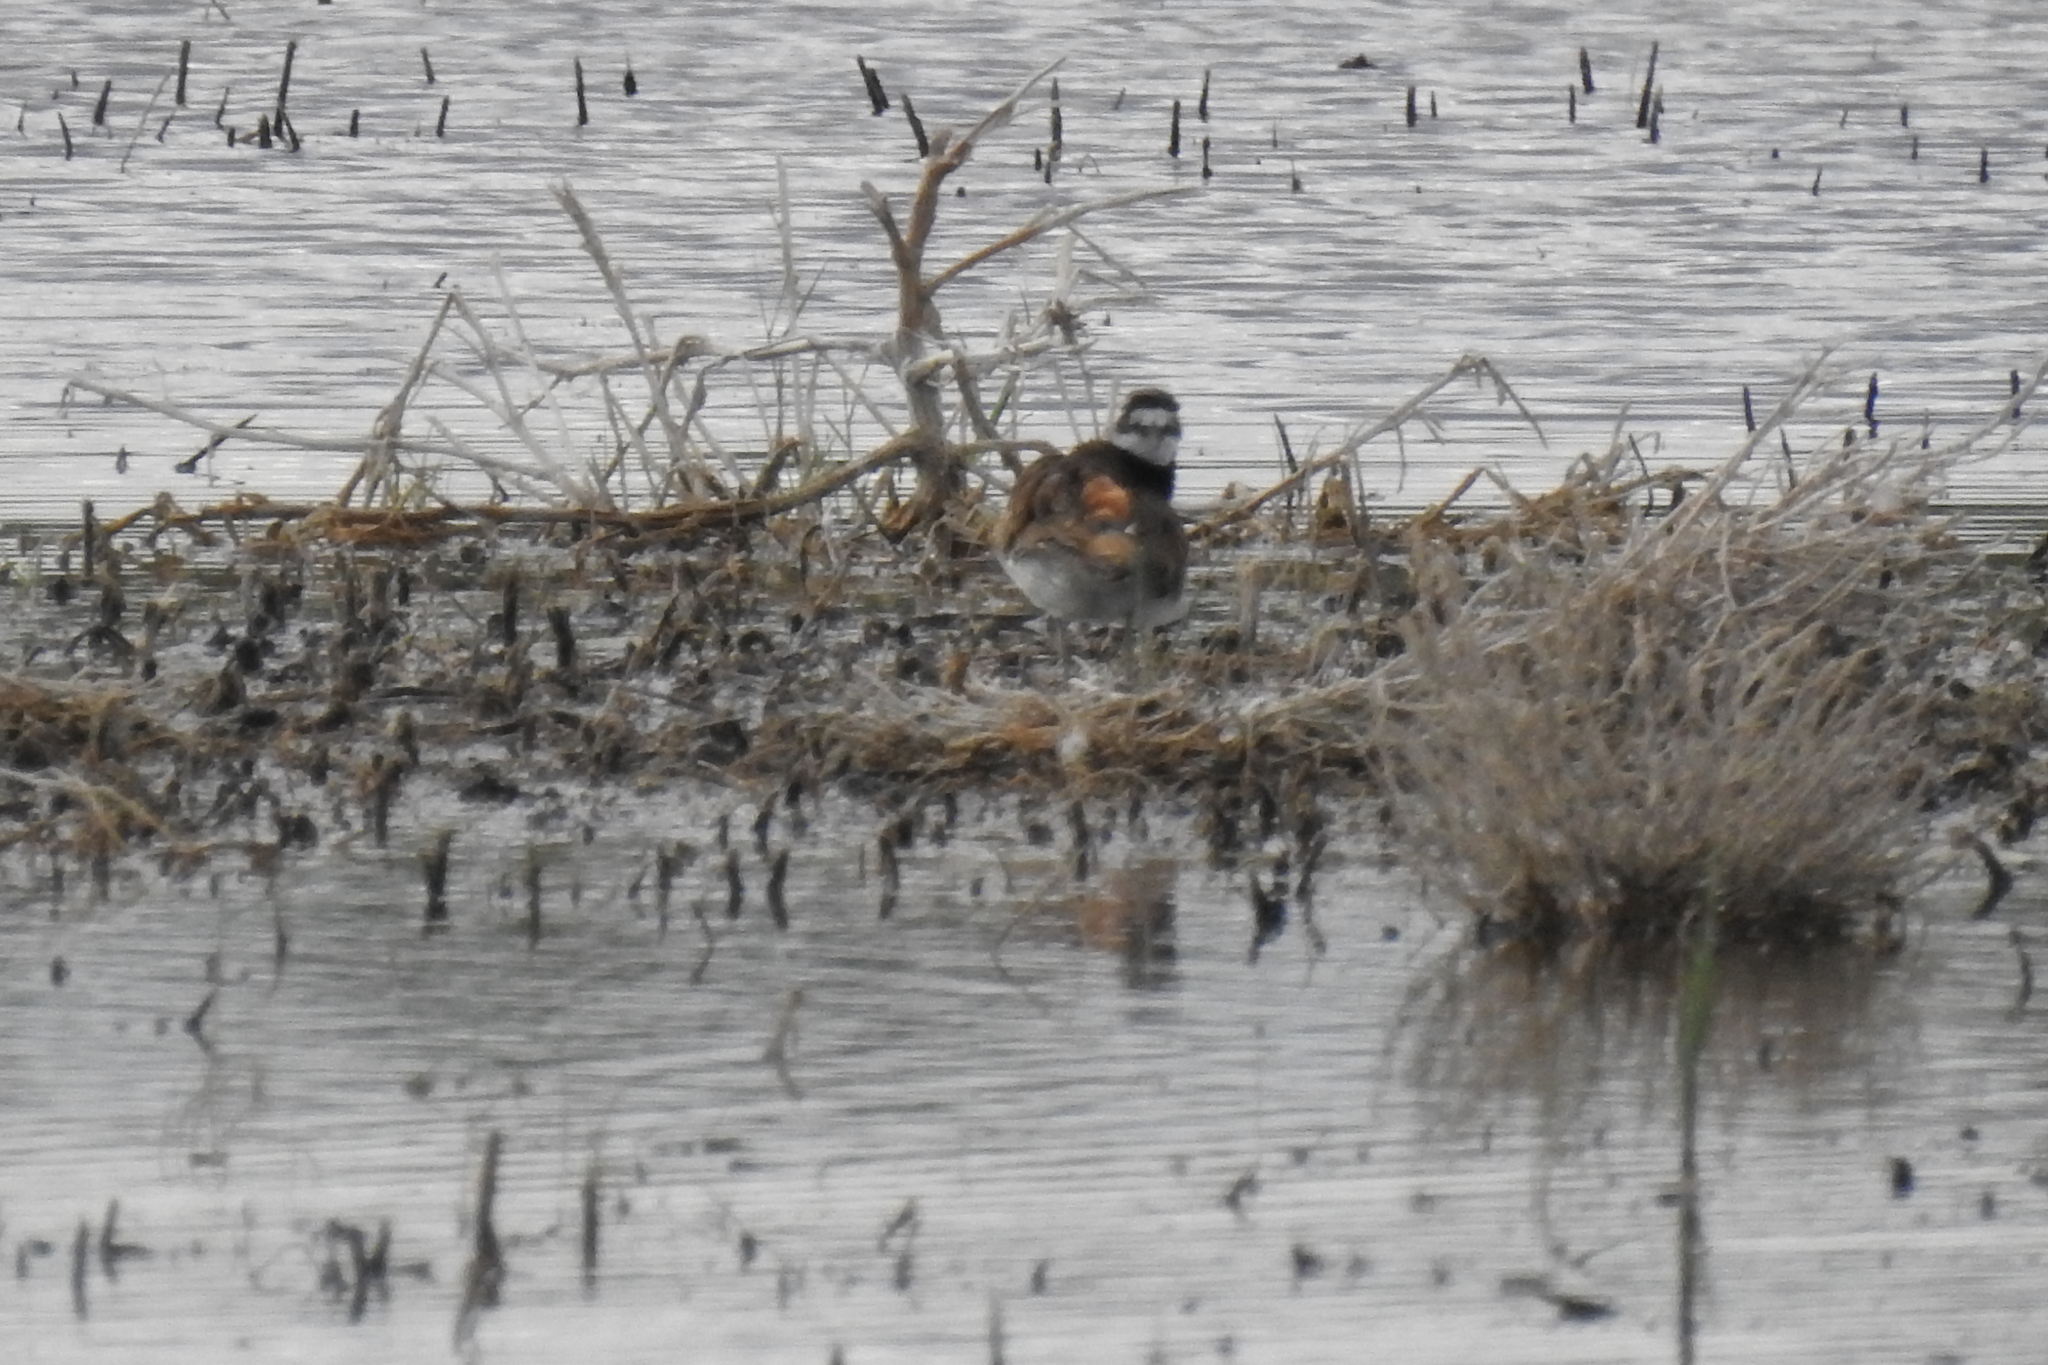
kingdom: Animalia
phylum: Chordata
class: Aves
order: Charadriiformes
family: Charadriidae
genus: Charadrius
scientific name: Charadrius vociferus
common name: Killdeer
